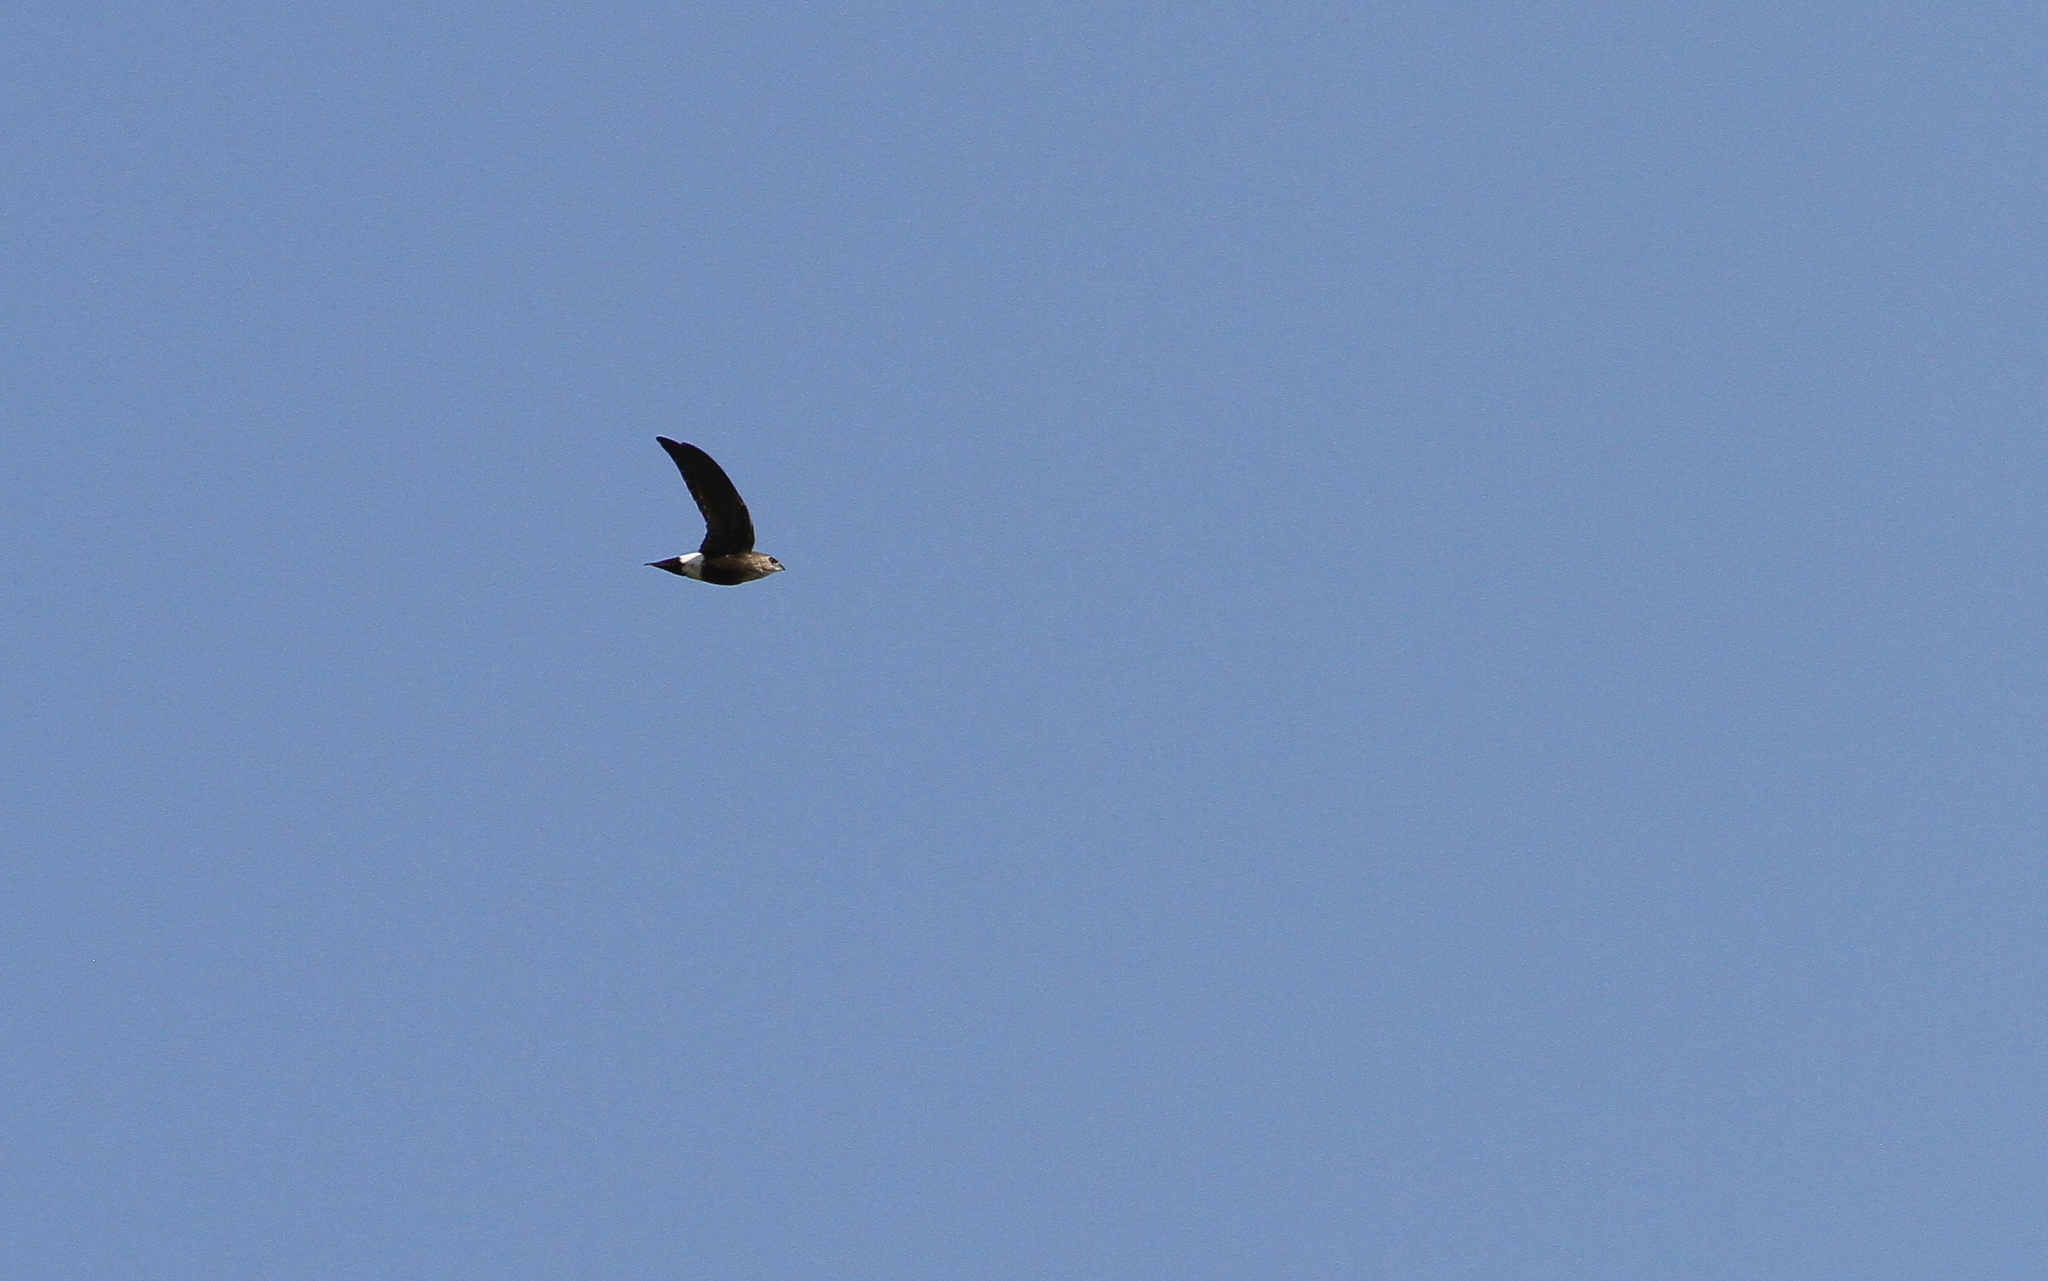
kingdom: Animalia
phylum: Chordata
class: Aves
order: Apodiformes
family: Apodidae
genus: Telacanthura
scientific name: Telacanthura ussheri
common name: Mottled spinetail
